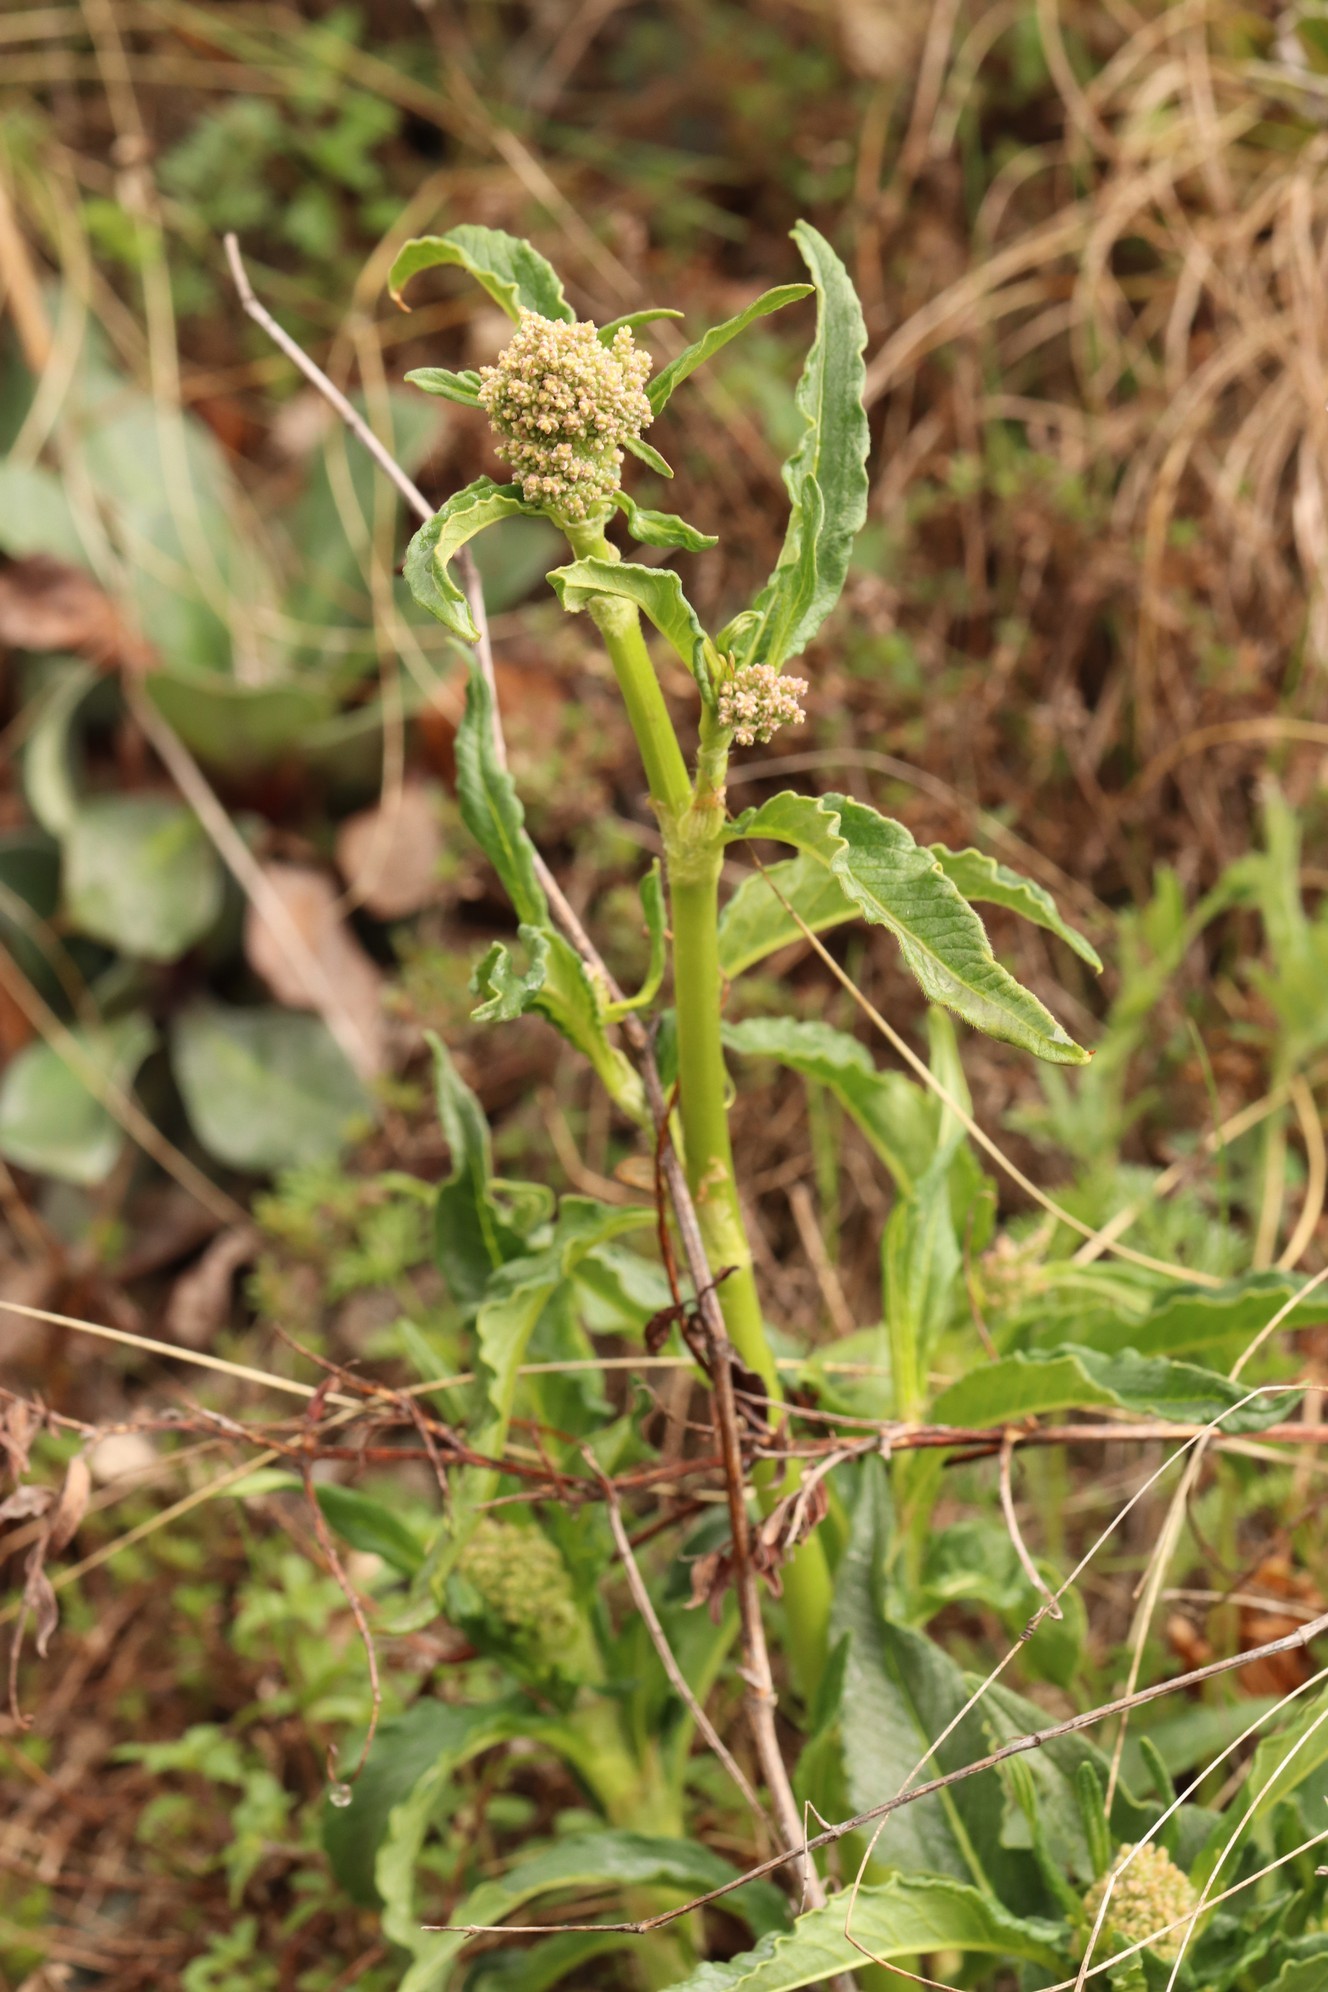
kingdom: Plantae
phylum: Tracheophyta
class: Magnoliopsida
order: Caryophyllales
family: Polygonaceae
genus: Koenigia
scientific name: Koenigia alpina
